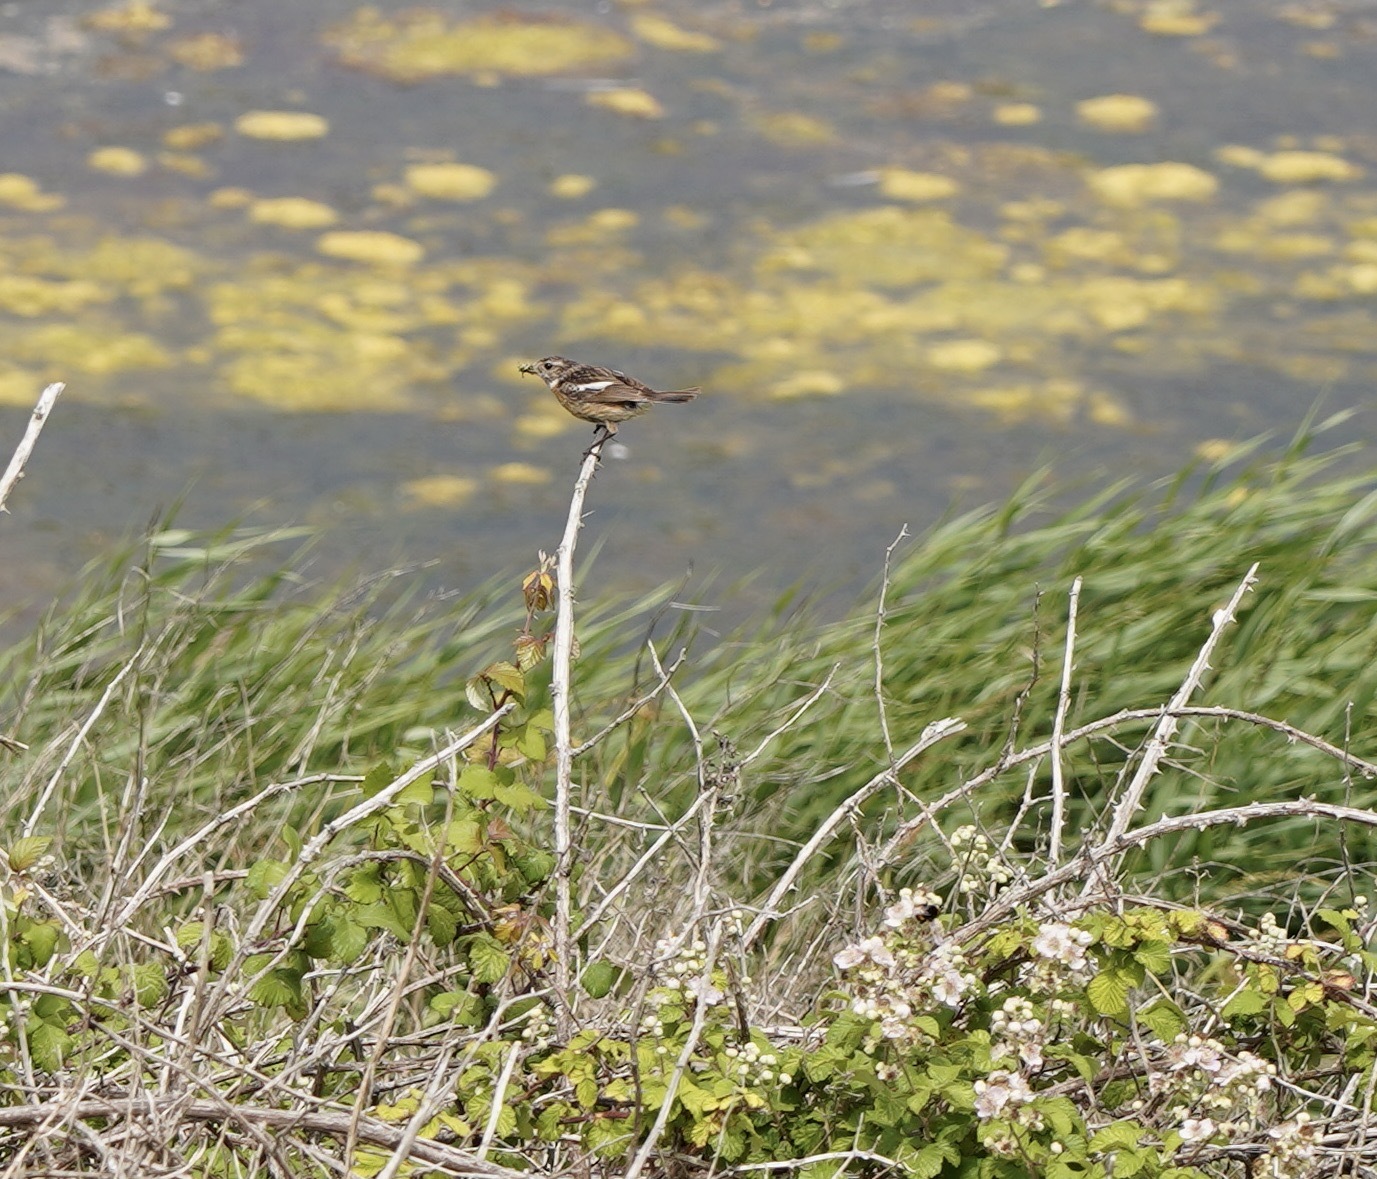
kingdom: Animalia
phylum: Chordata
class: Aves
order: Passeriformes
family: Muscicapidae
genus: Saxicola
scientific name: Saxicola rubicola
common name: European stonechat
